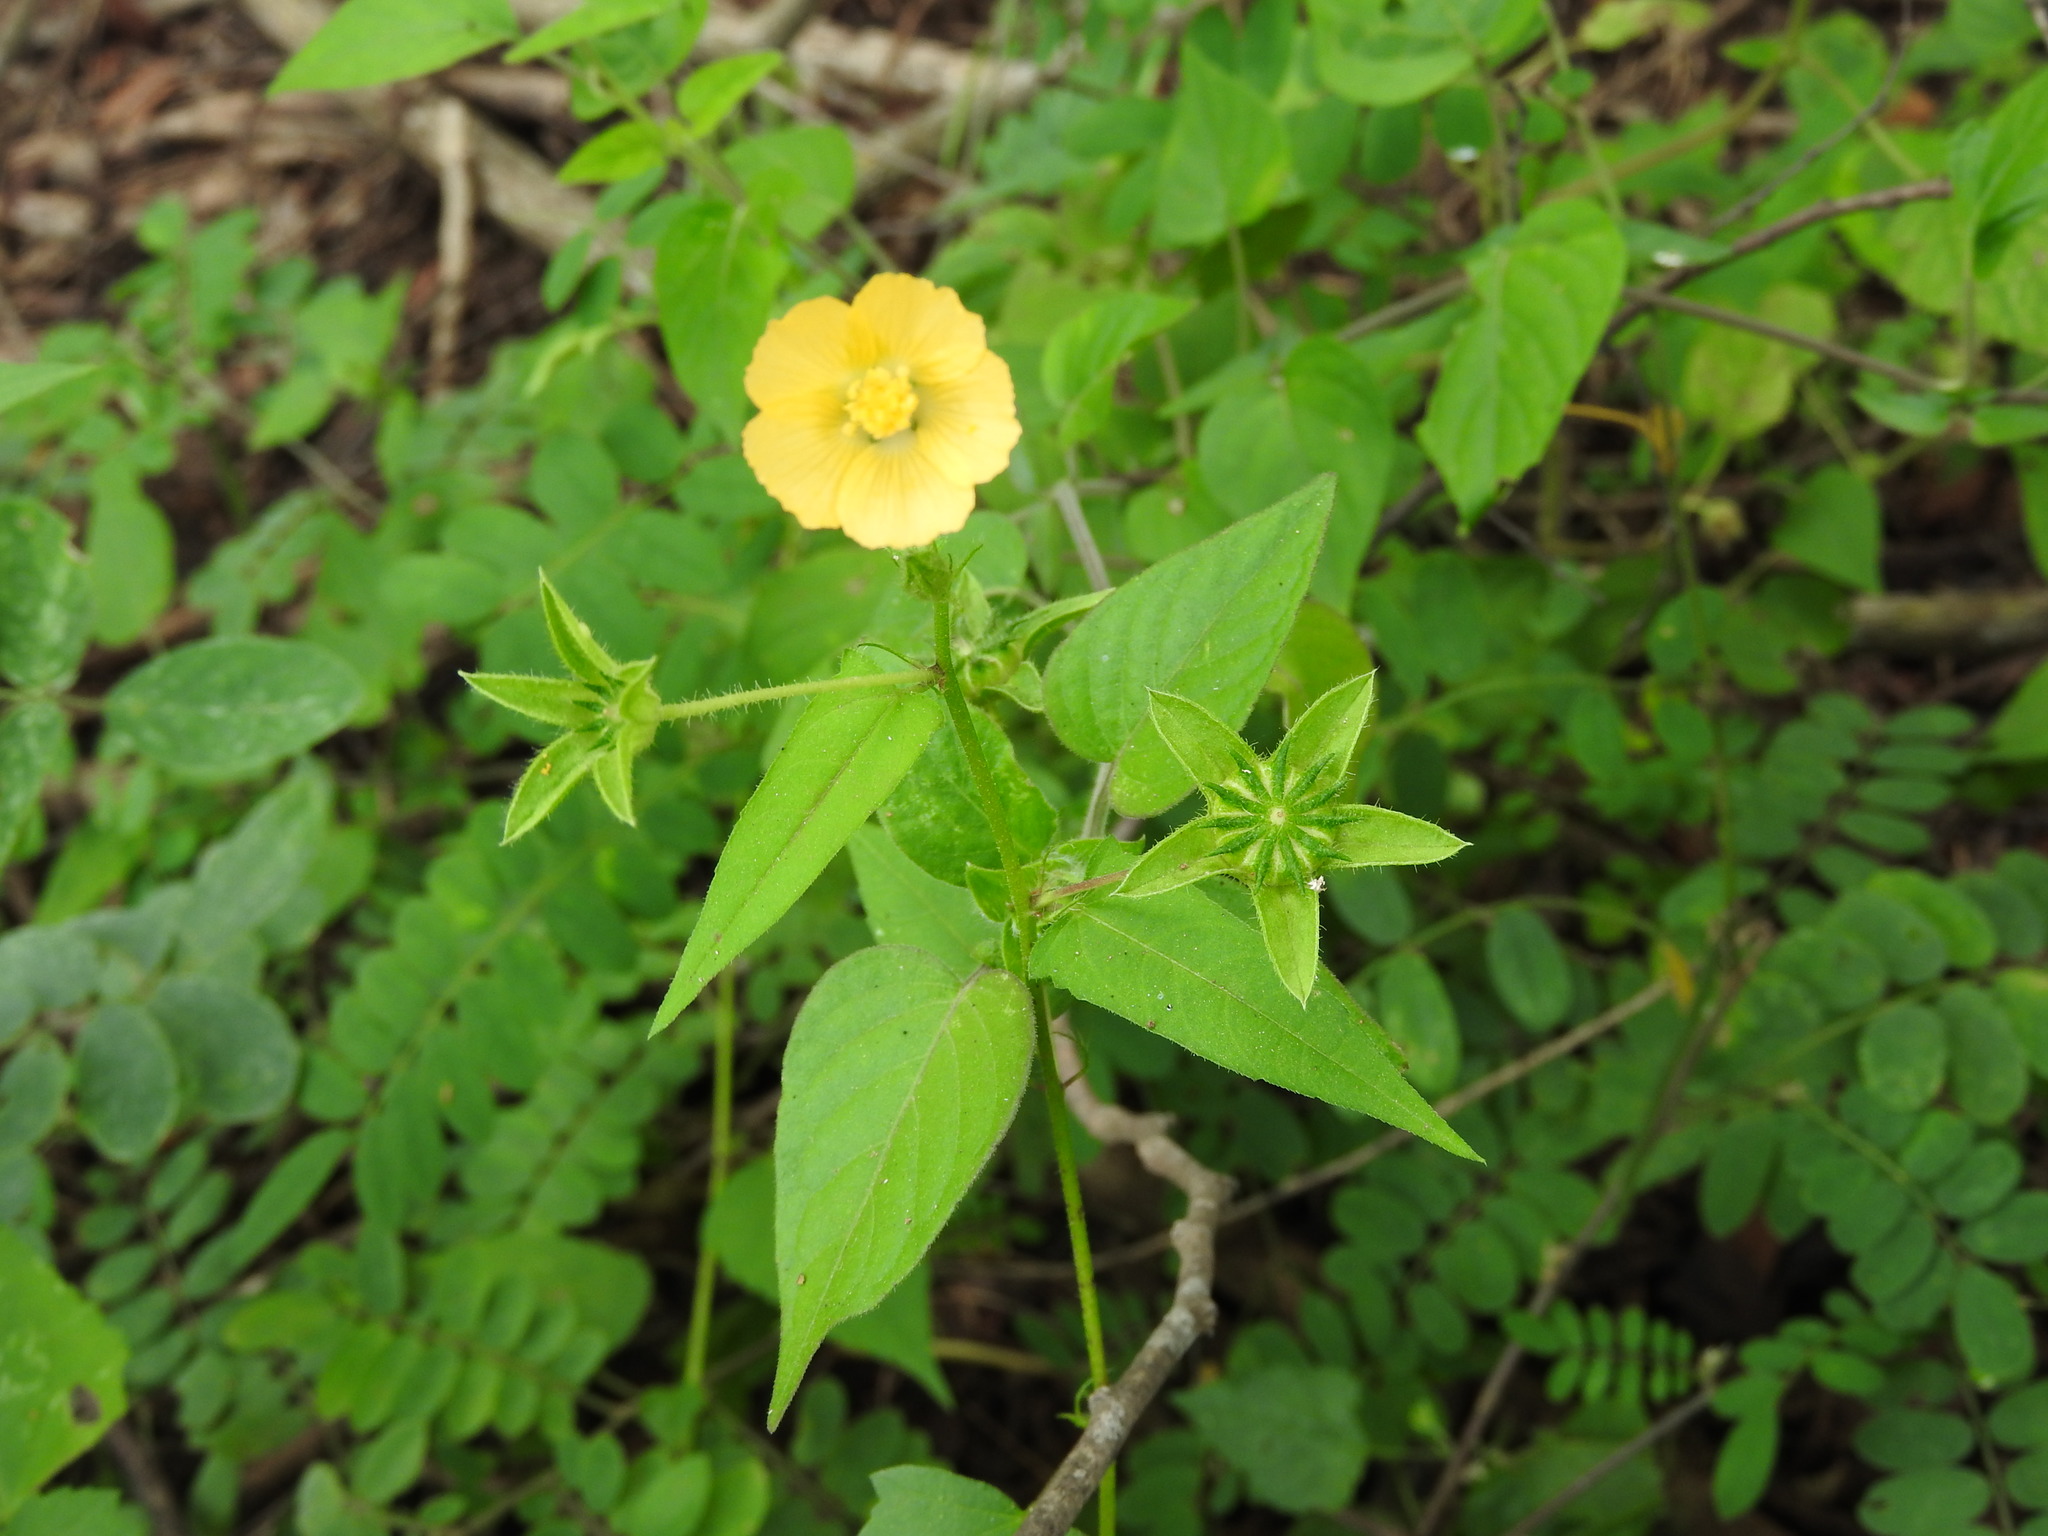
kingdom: Plantae
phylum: Tracheophyta
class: Magnoliopsida
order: Malvales
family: Malvaceae
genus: Anoda
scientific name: Anoda lanceolata
